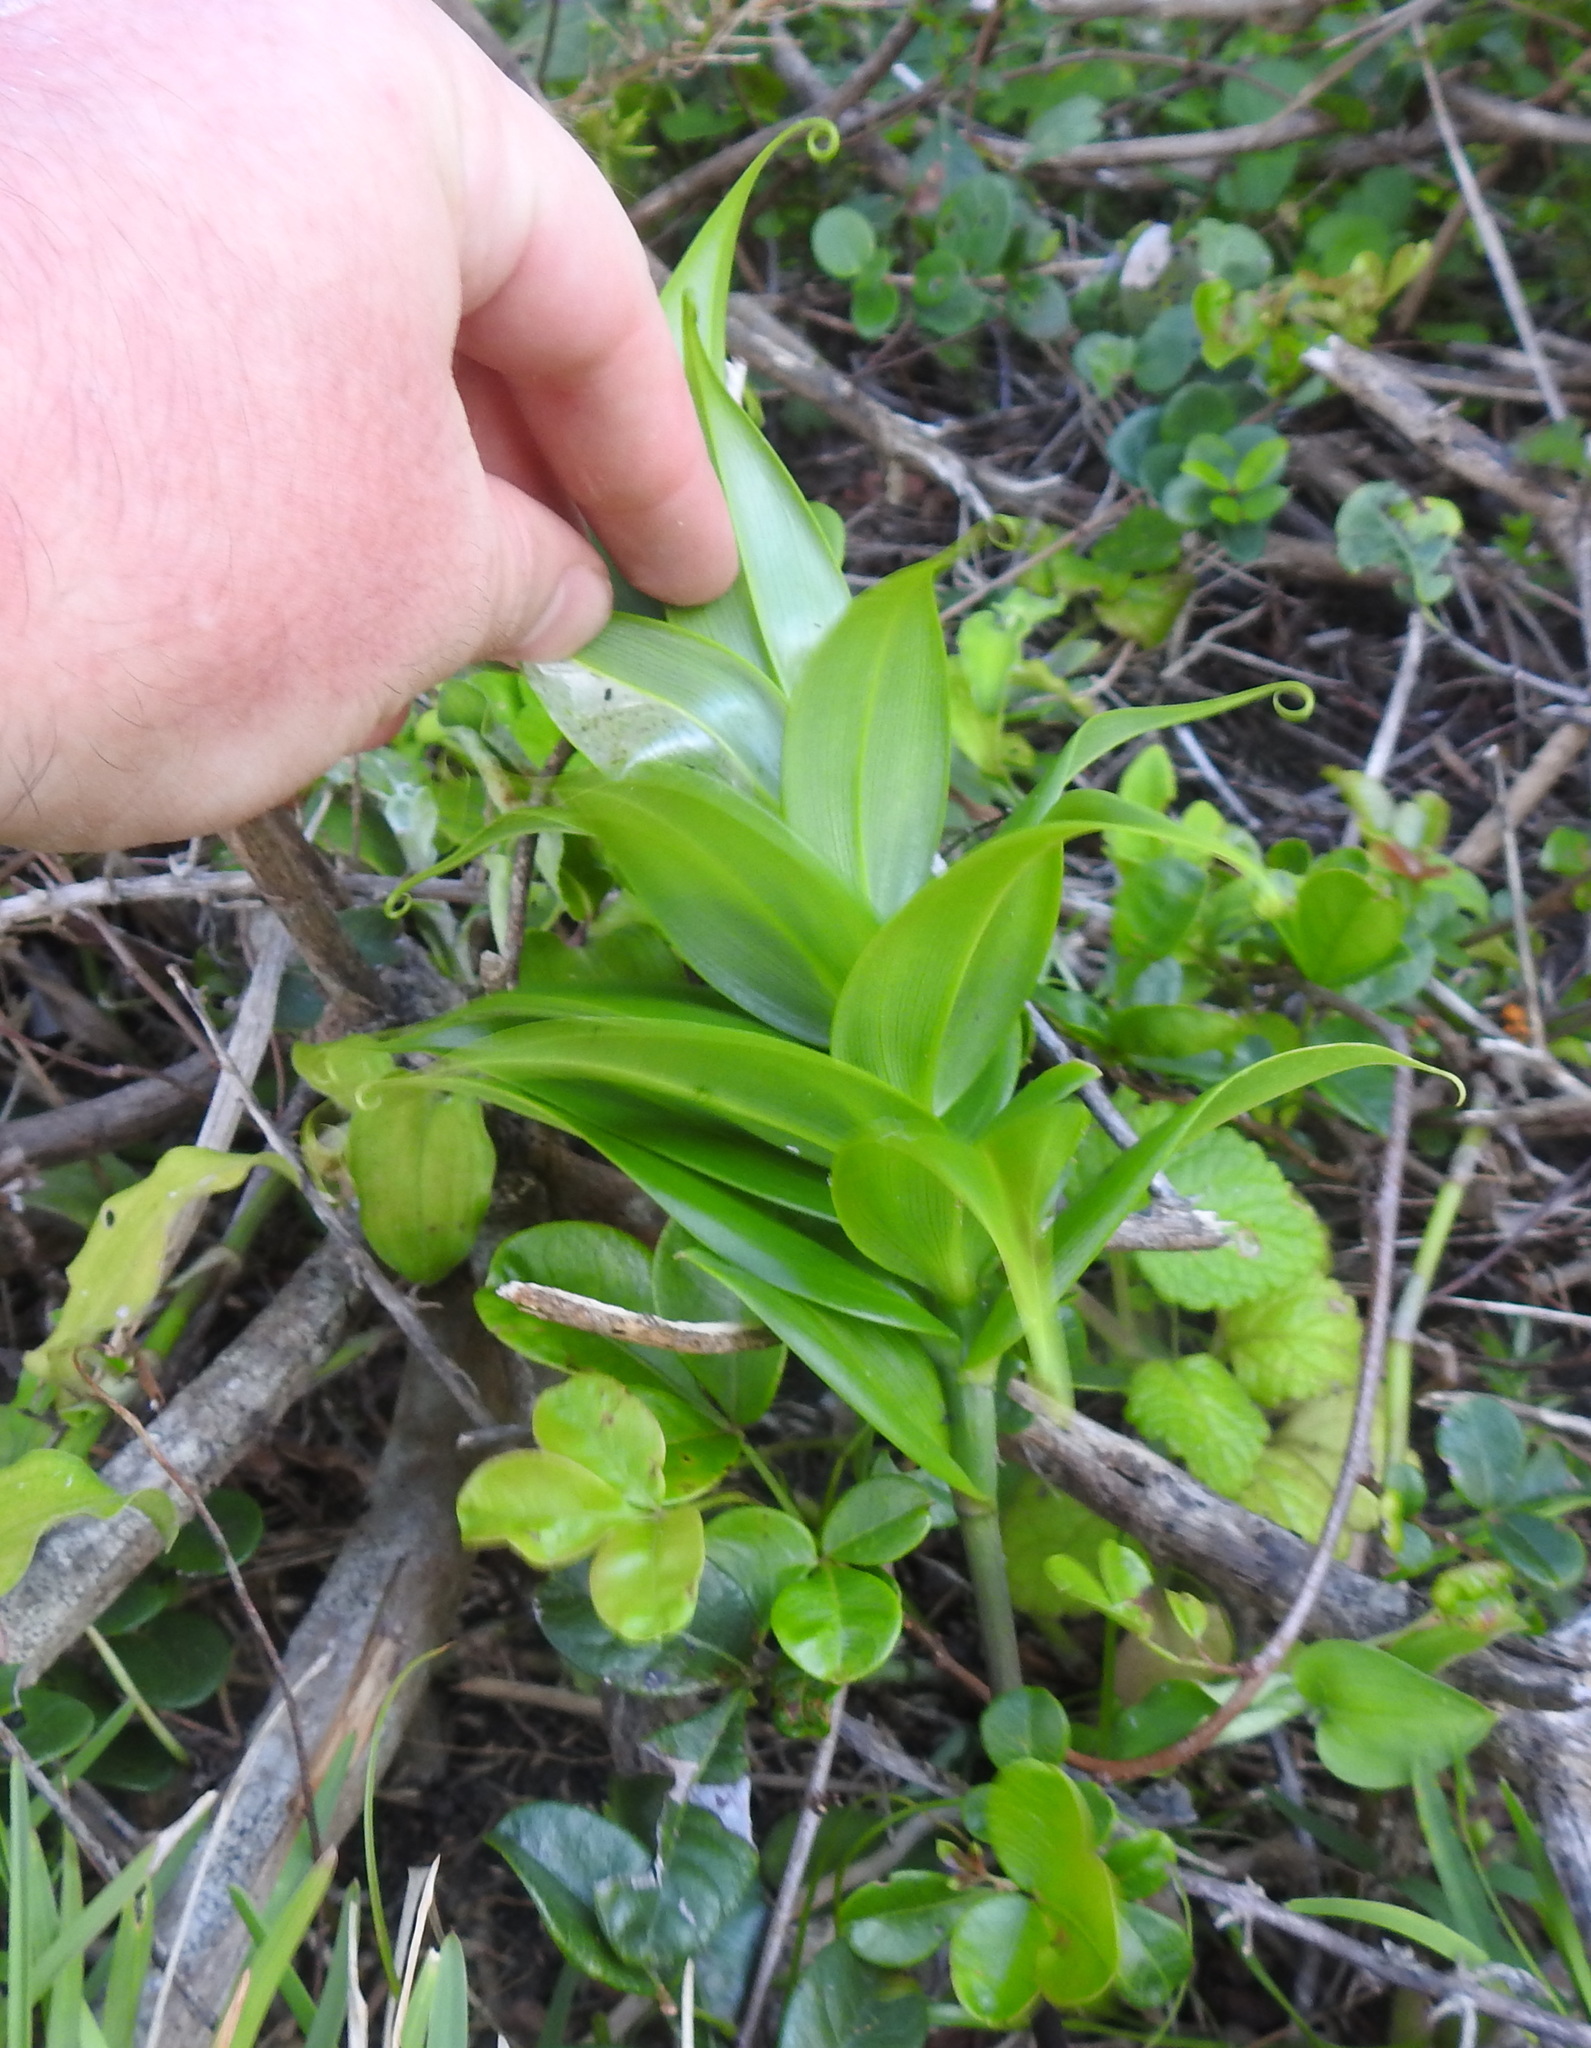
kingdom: Plantae
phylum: Tracheophyta
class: Liliopsida
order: Liliales
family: Colchicaceae
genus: Gloriosa
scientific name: Gloriosa superba
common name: Flame lily
